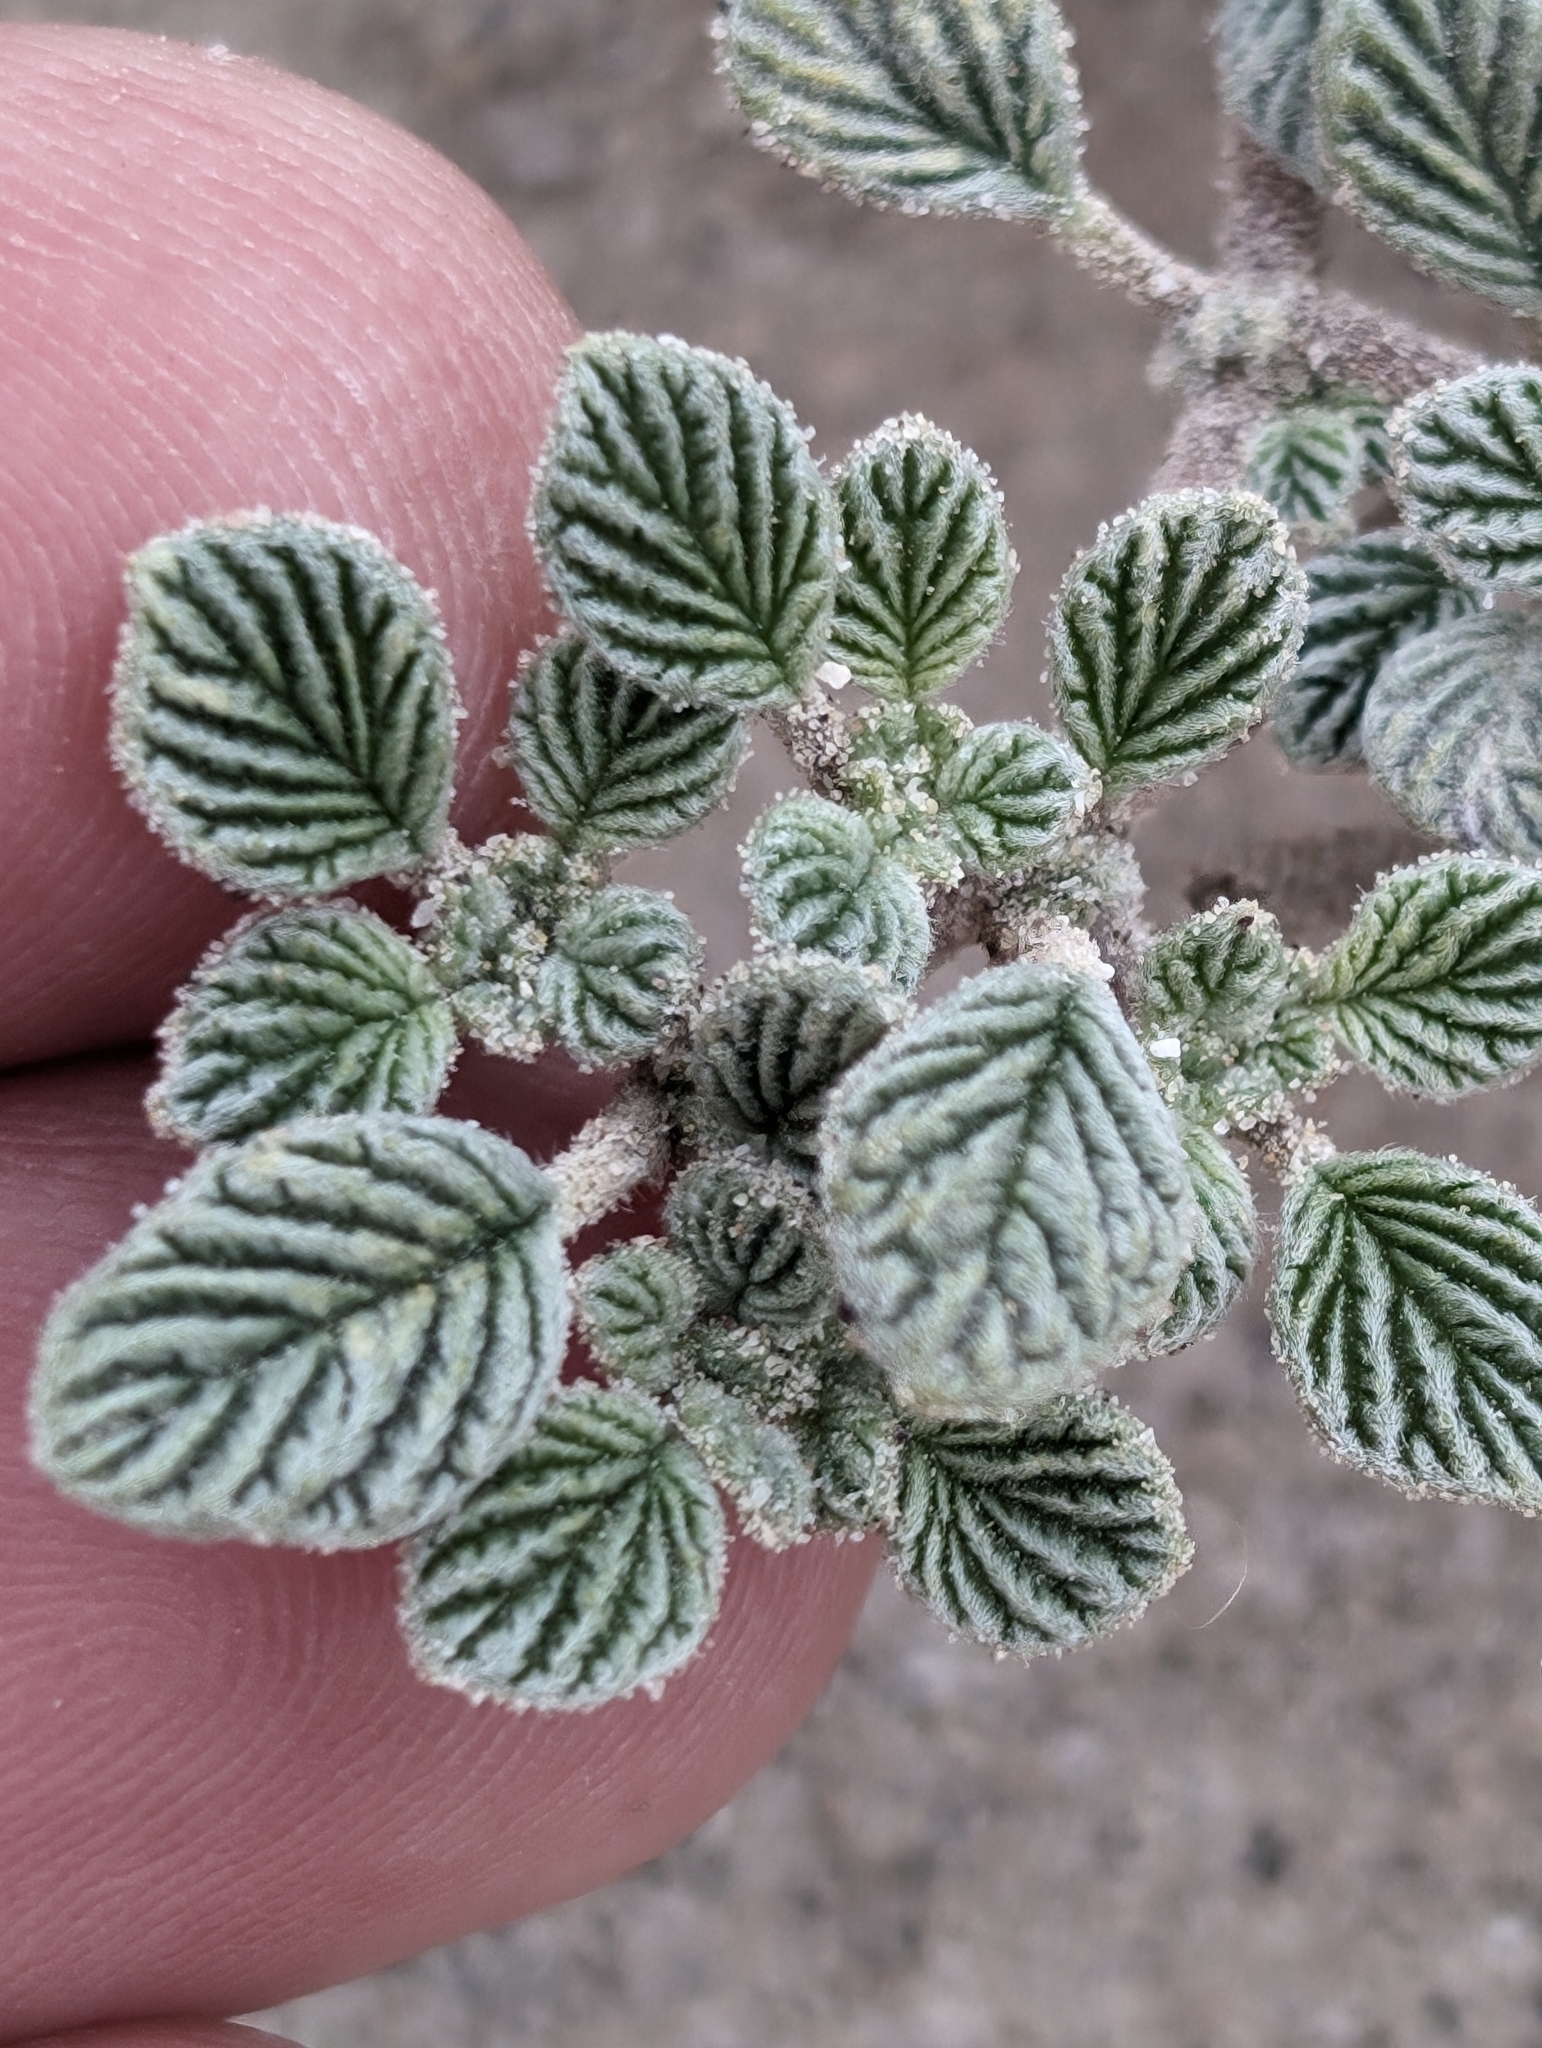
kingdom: Plantae
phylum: Tracheophyta
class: Magnoliopsida
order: Boraginales
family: Ehretiaceae
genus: Tiquilia
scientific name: Tiquilia plicata
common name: Fan-leaf tiquilia
